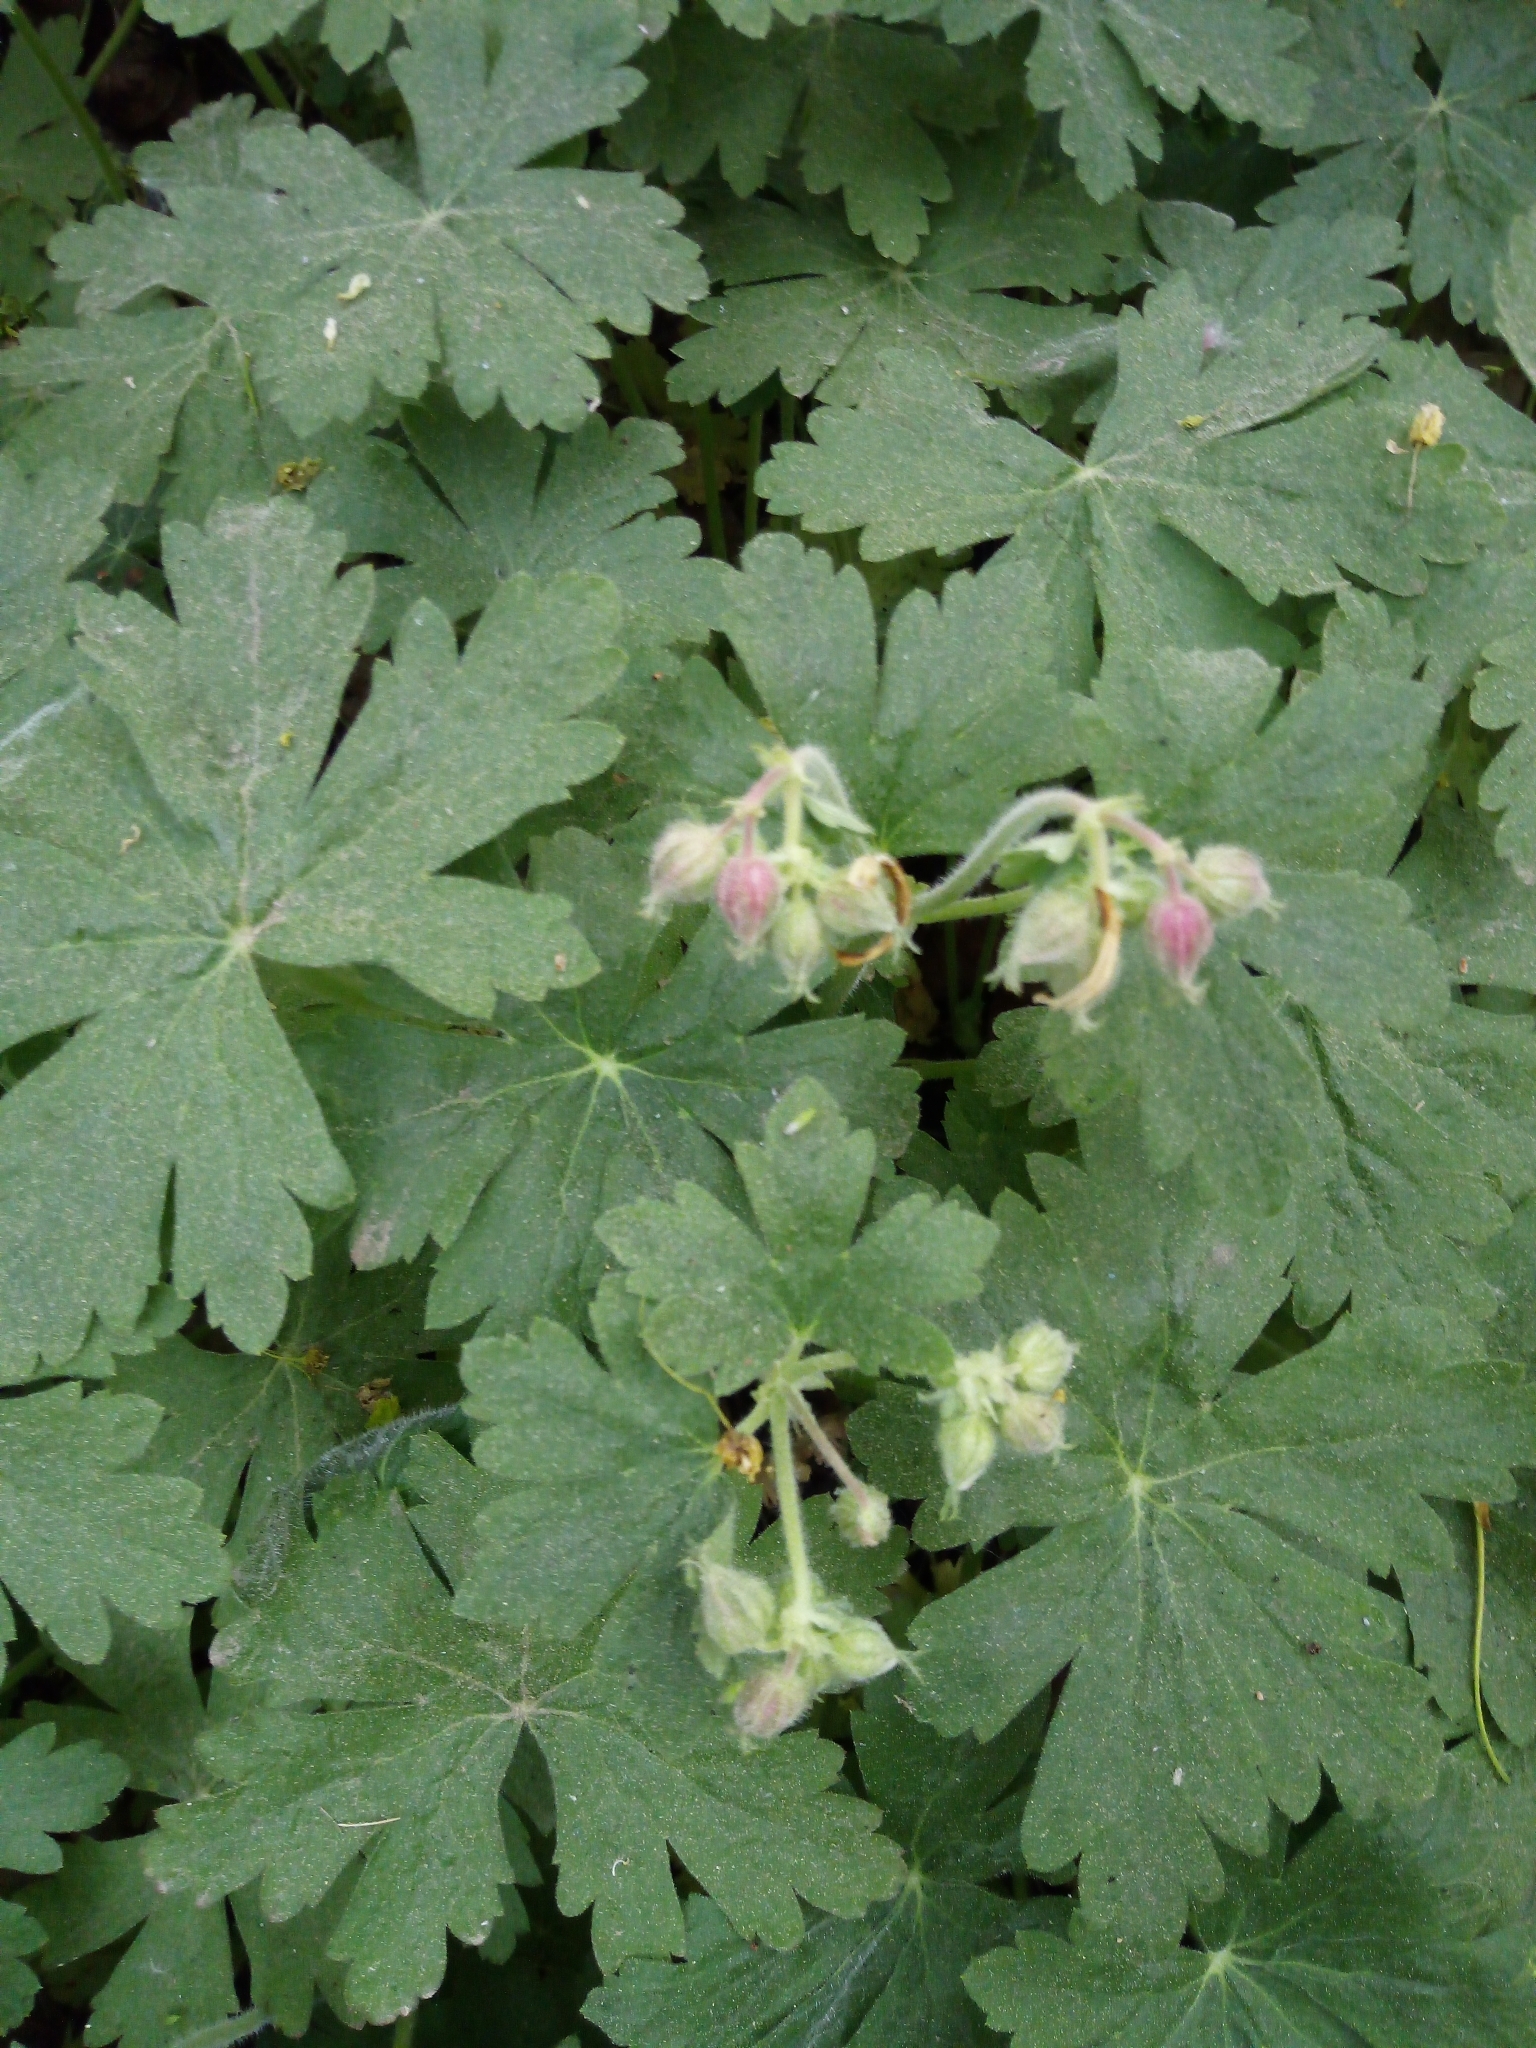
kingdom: Plantae
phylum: Tracheophyta
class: Magnoliopsida
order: Geraniales
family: Geraniaceae
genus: Geranium
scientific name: Geranium macrorrhizum
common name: Rock crane's-bill
